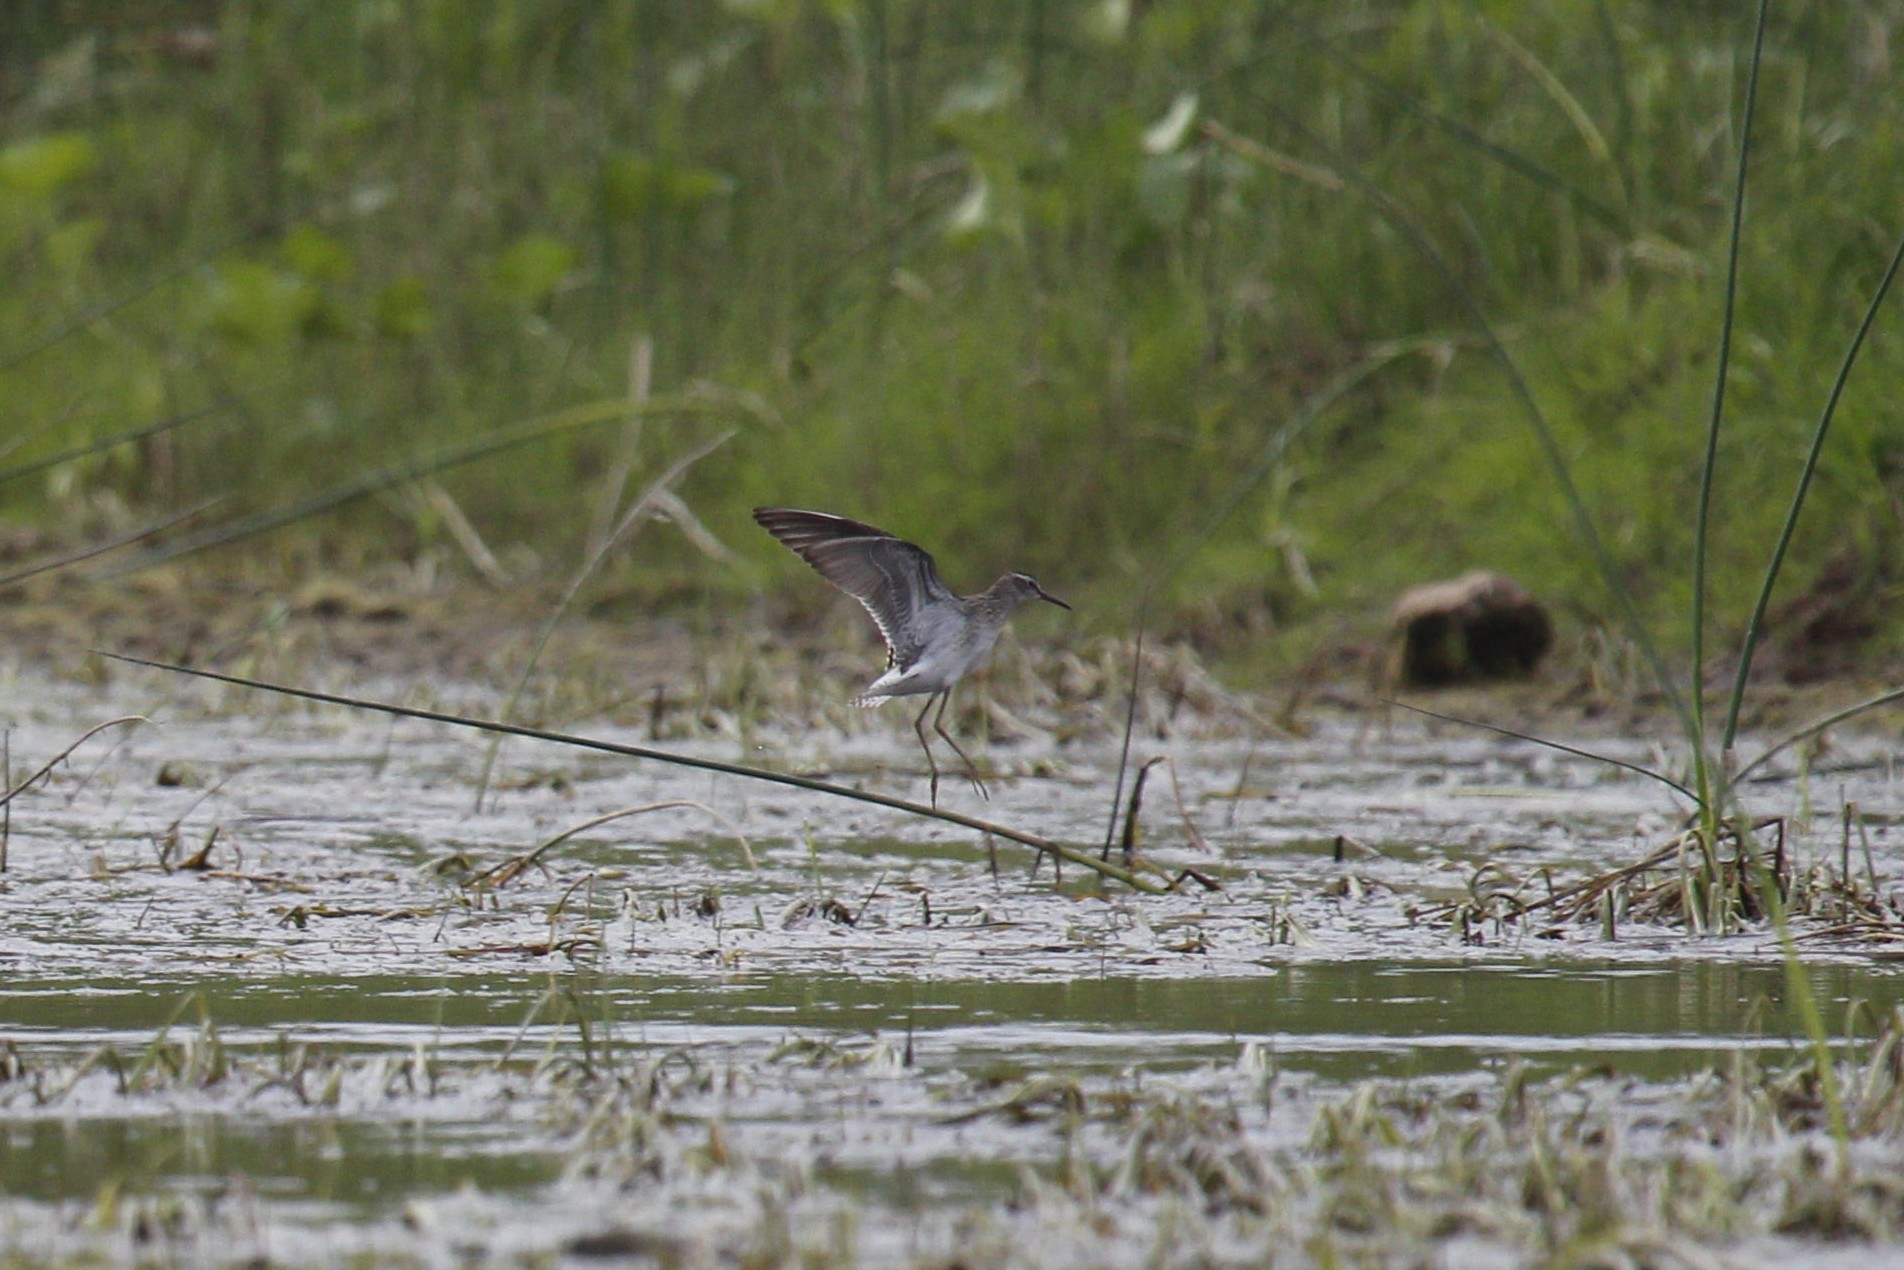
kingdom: Animalia
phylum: Chordata
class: Aves
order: Charadriiformes
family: Scolopacidae
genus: Tringa
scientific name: Tringa glareola
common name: Wood sandpiper
